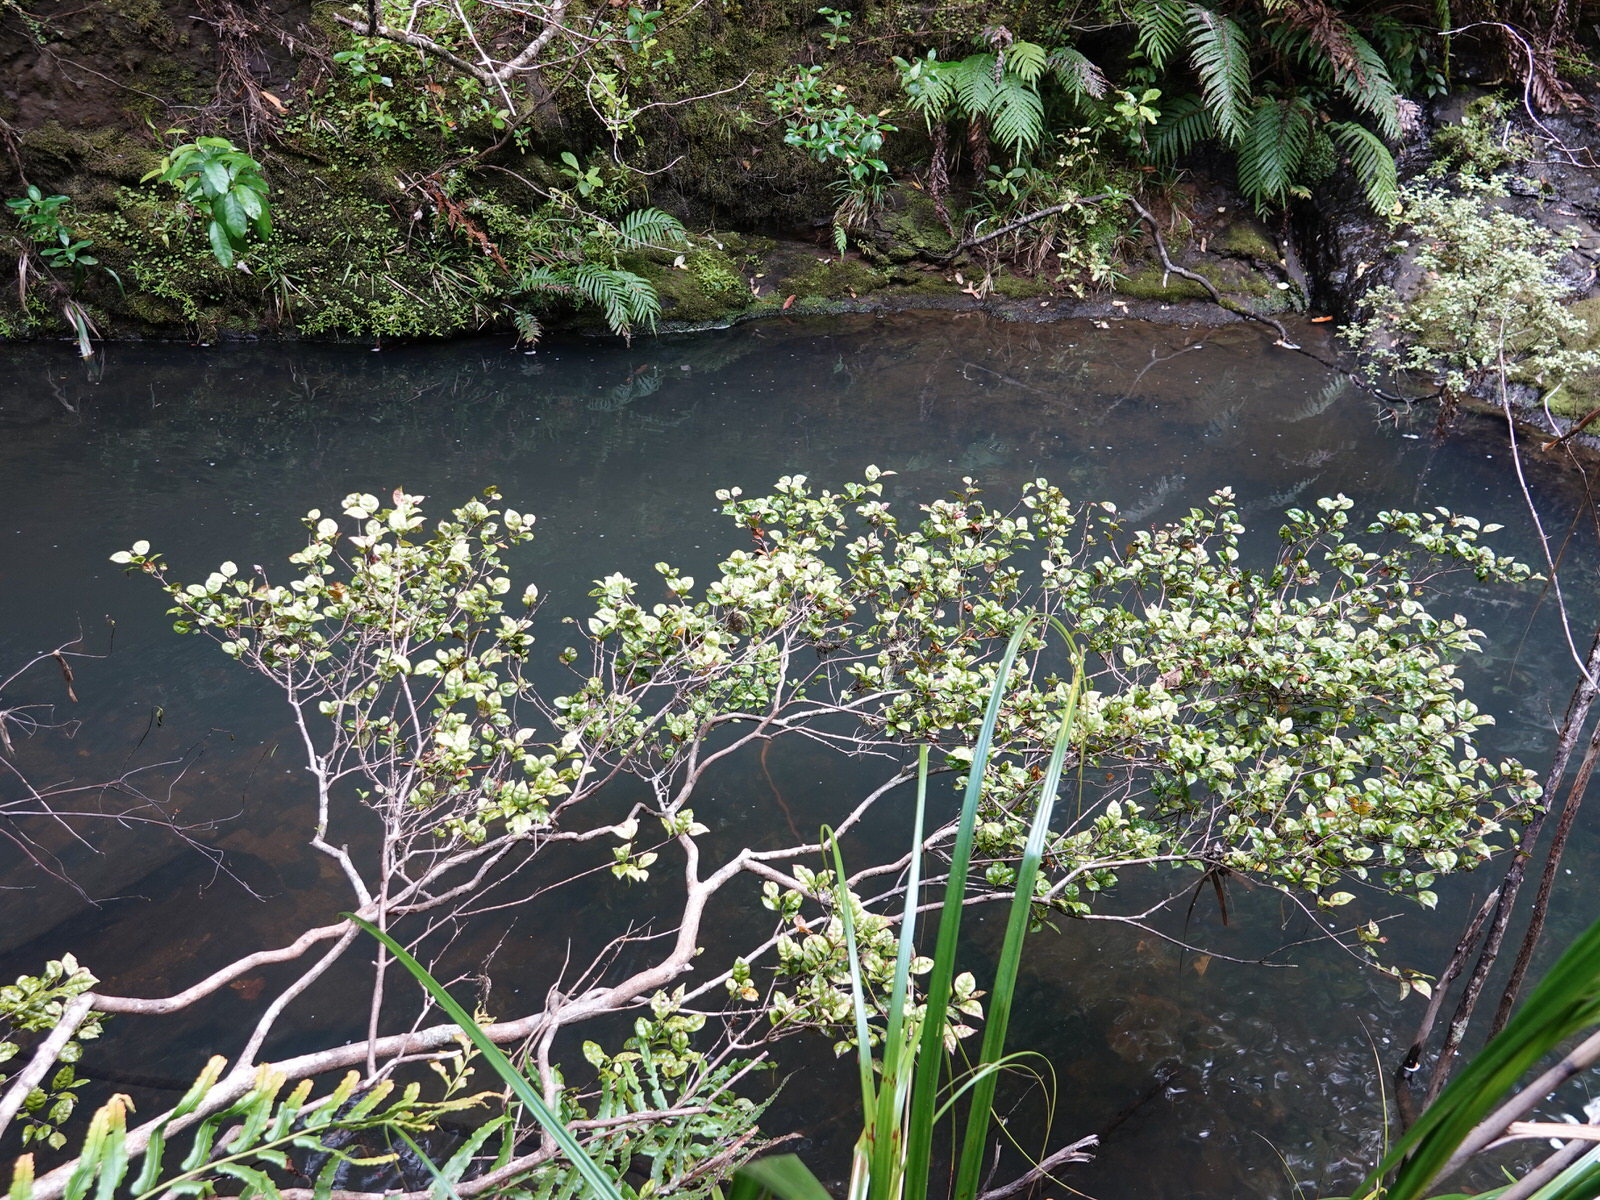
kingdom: Plantae
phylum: Tracheophyta
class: Magnoliopsida
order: Myrtales
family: Myrtaceae
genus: Lophomyrtus
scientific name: Lophomyrtus bullata
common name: Rama rama
